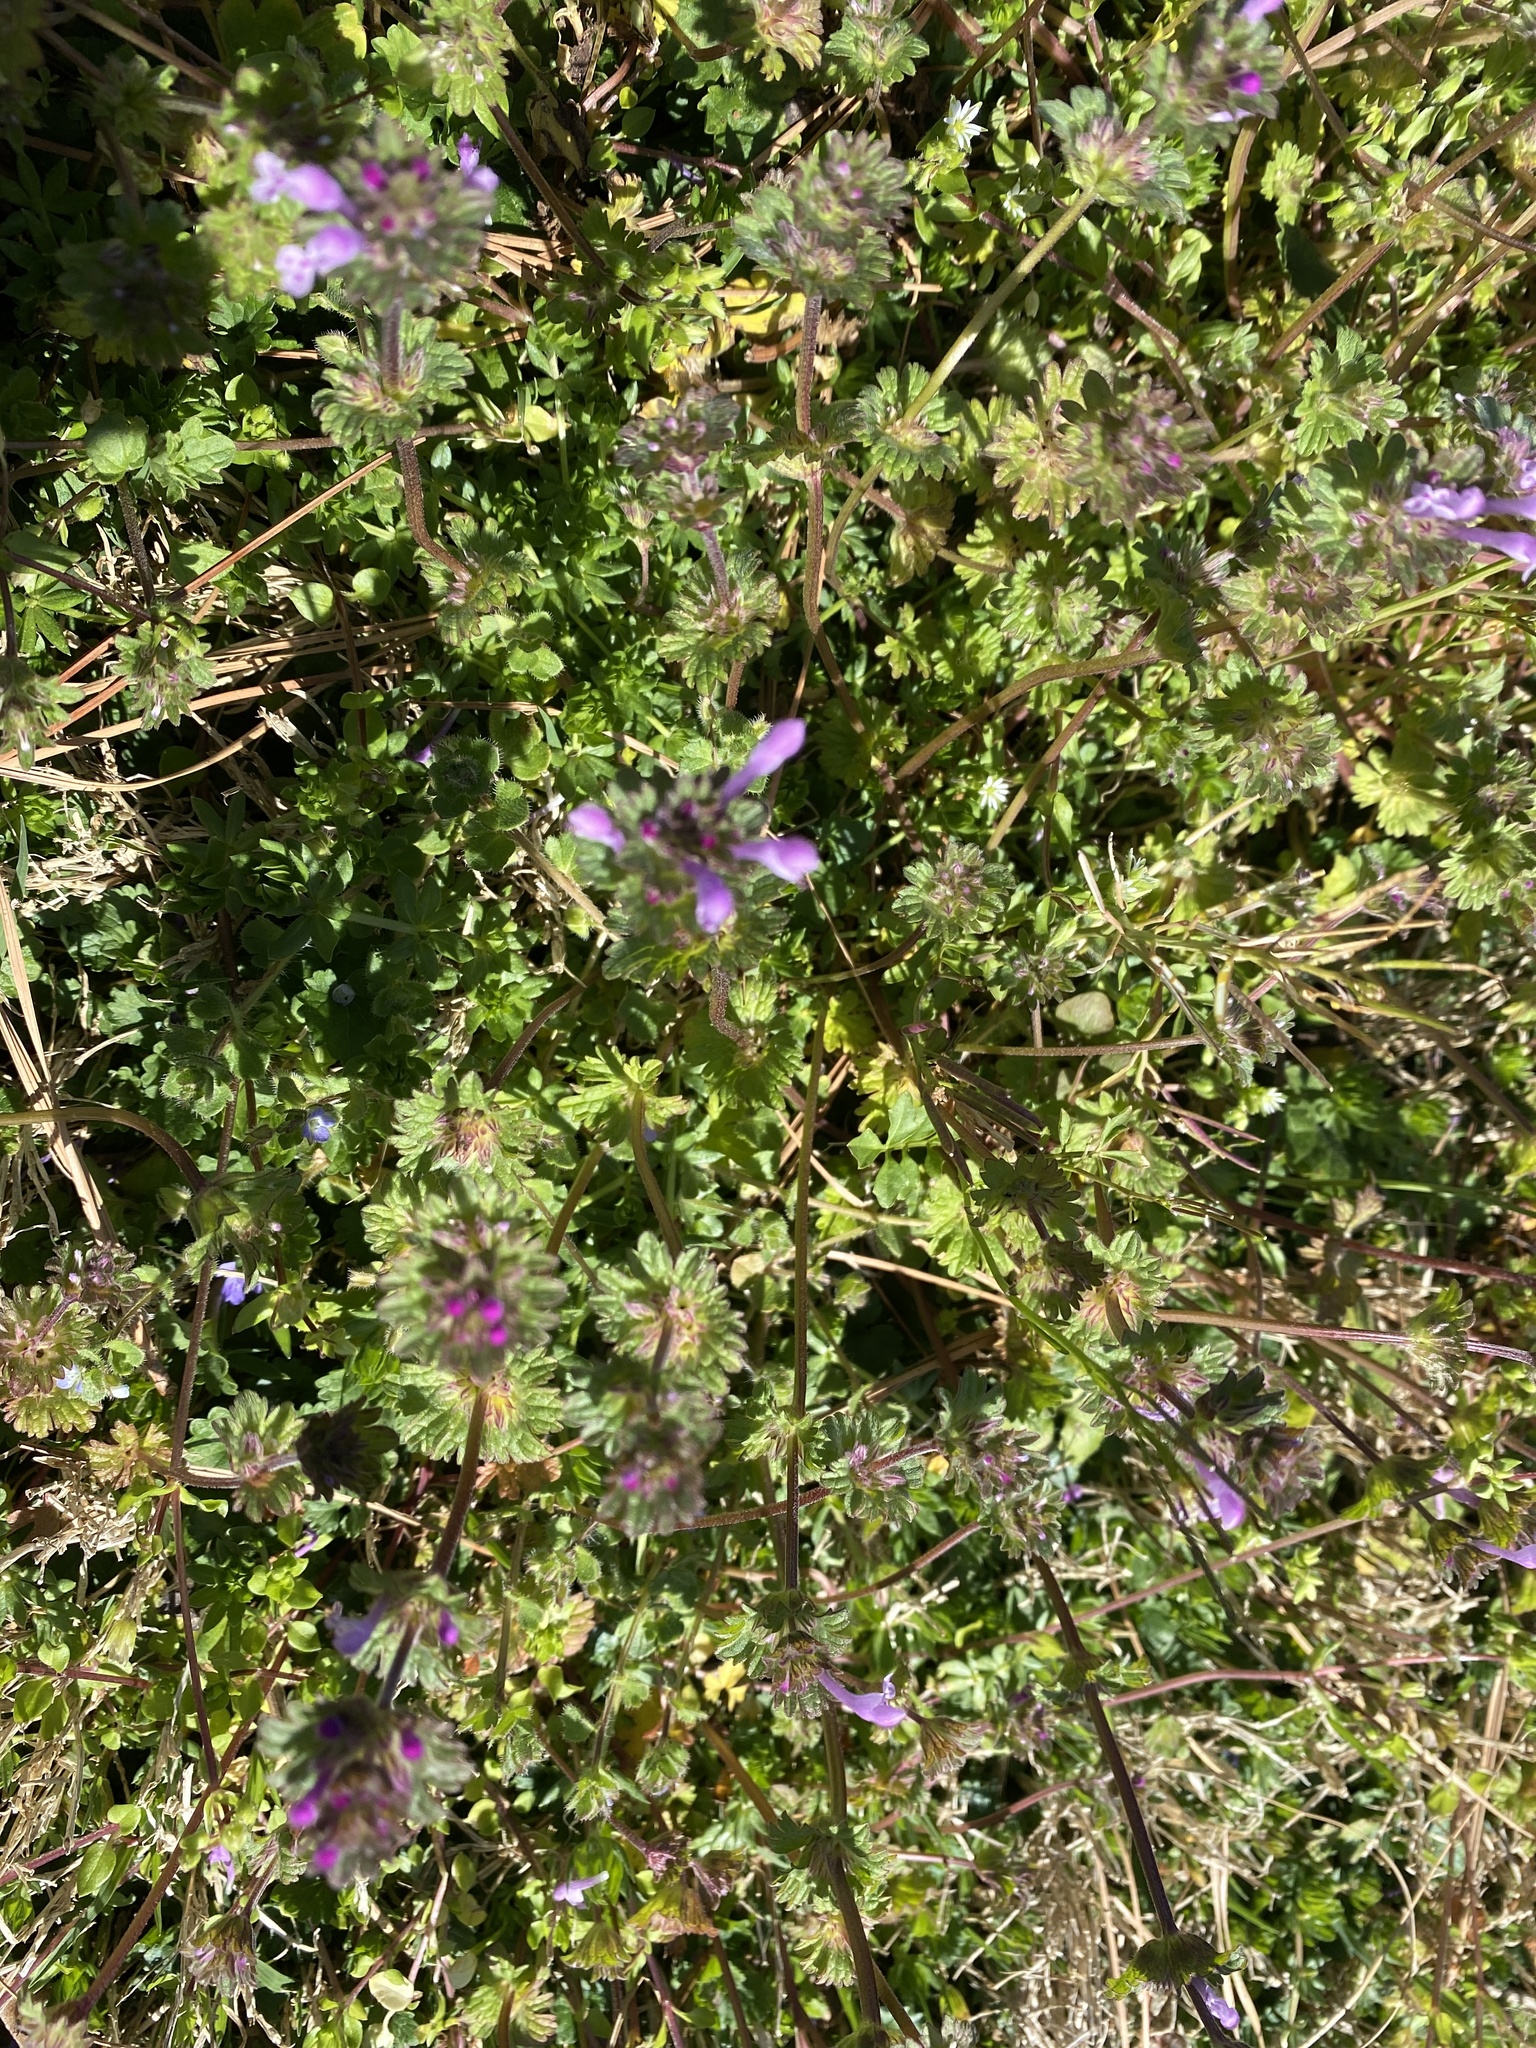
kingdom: Plantae
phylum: Tracheophyta
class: Magnoliopsida
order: Lamiales
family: Lamiaceae
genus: Lamium
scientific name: Lamium amplexicaule
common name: Henbit dead-nettle
